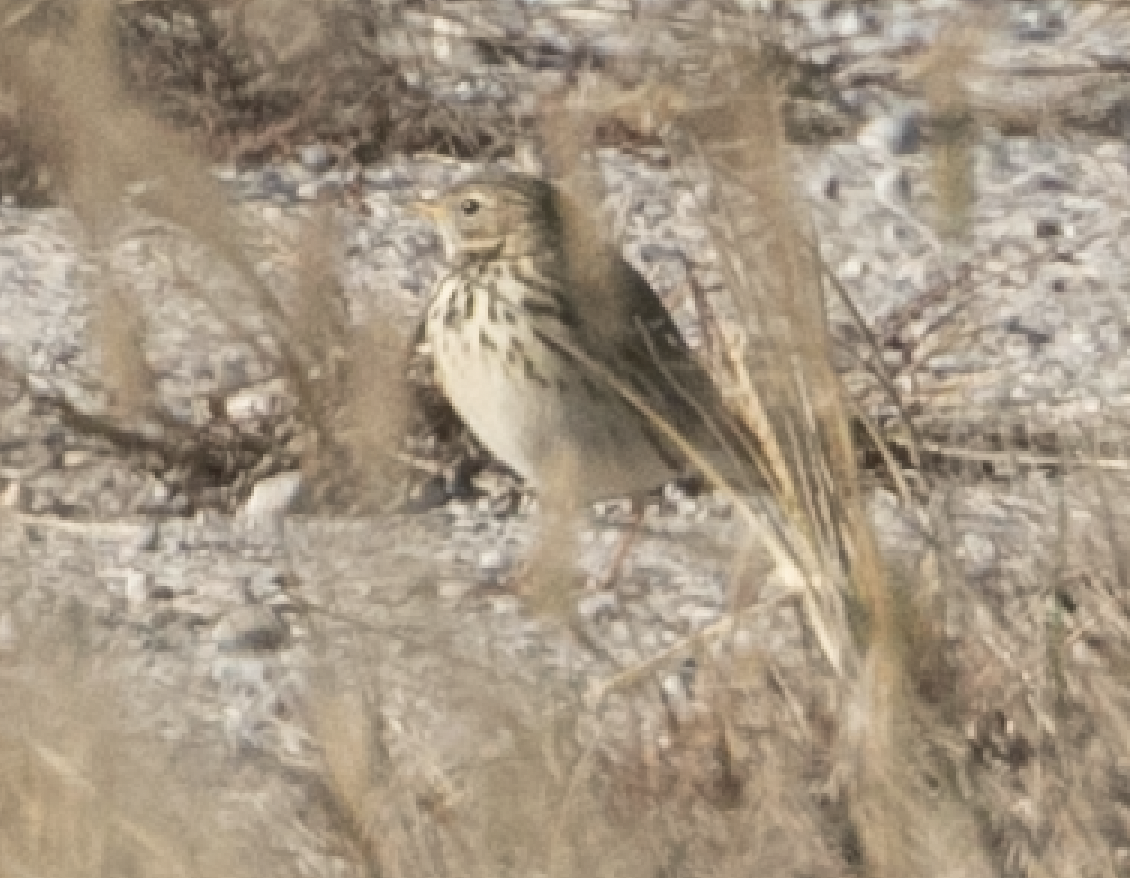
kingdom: Animalia
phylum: Chordata
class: Aves
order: Passeriformes
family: Motacillidae
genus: Anthus
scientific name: Anthus pratensis
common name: Meadow pipit
